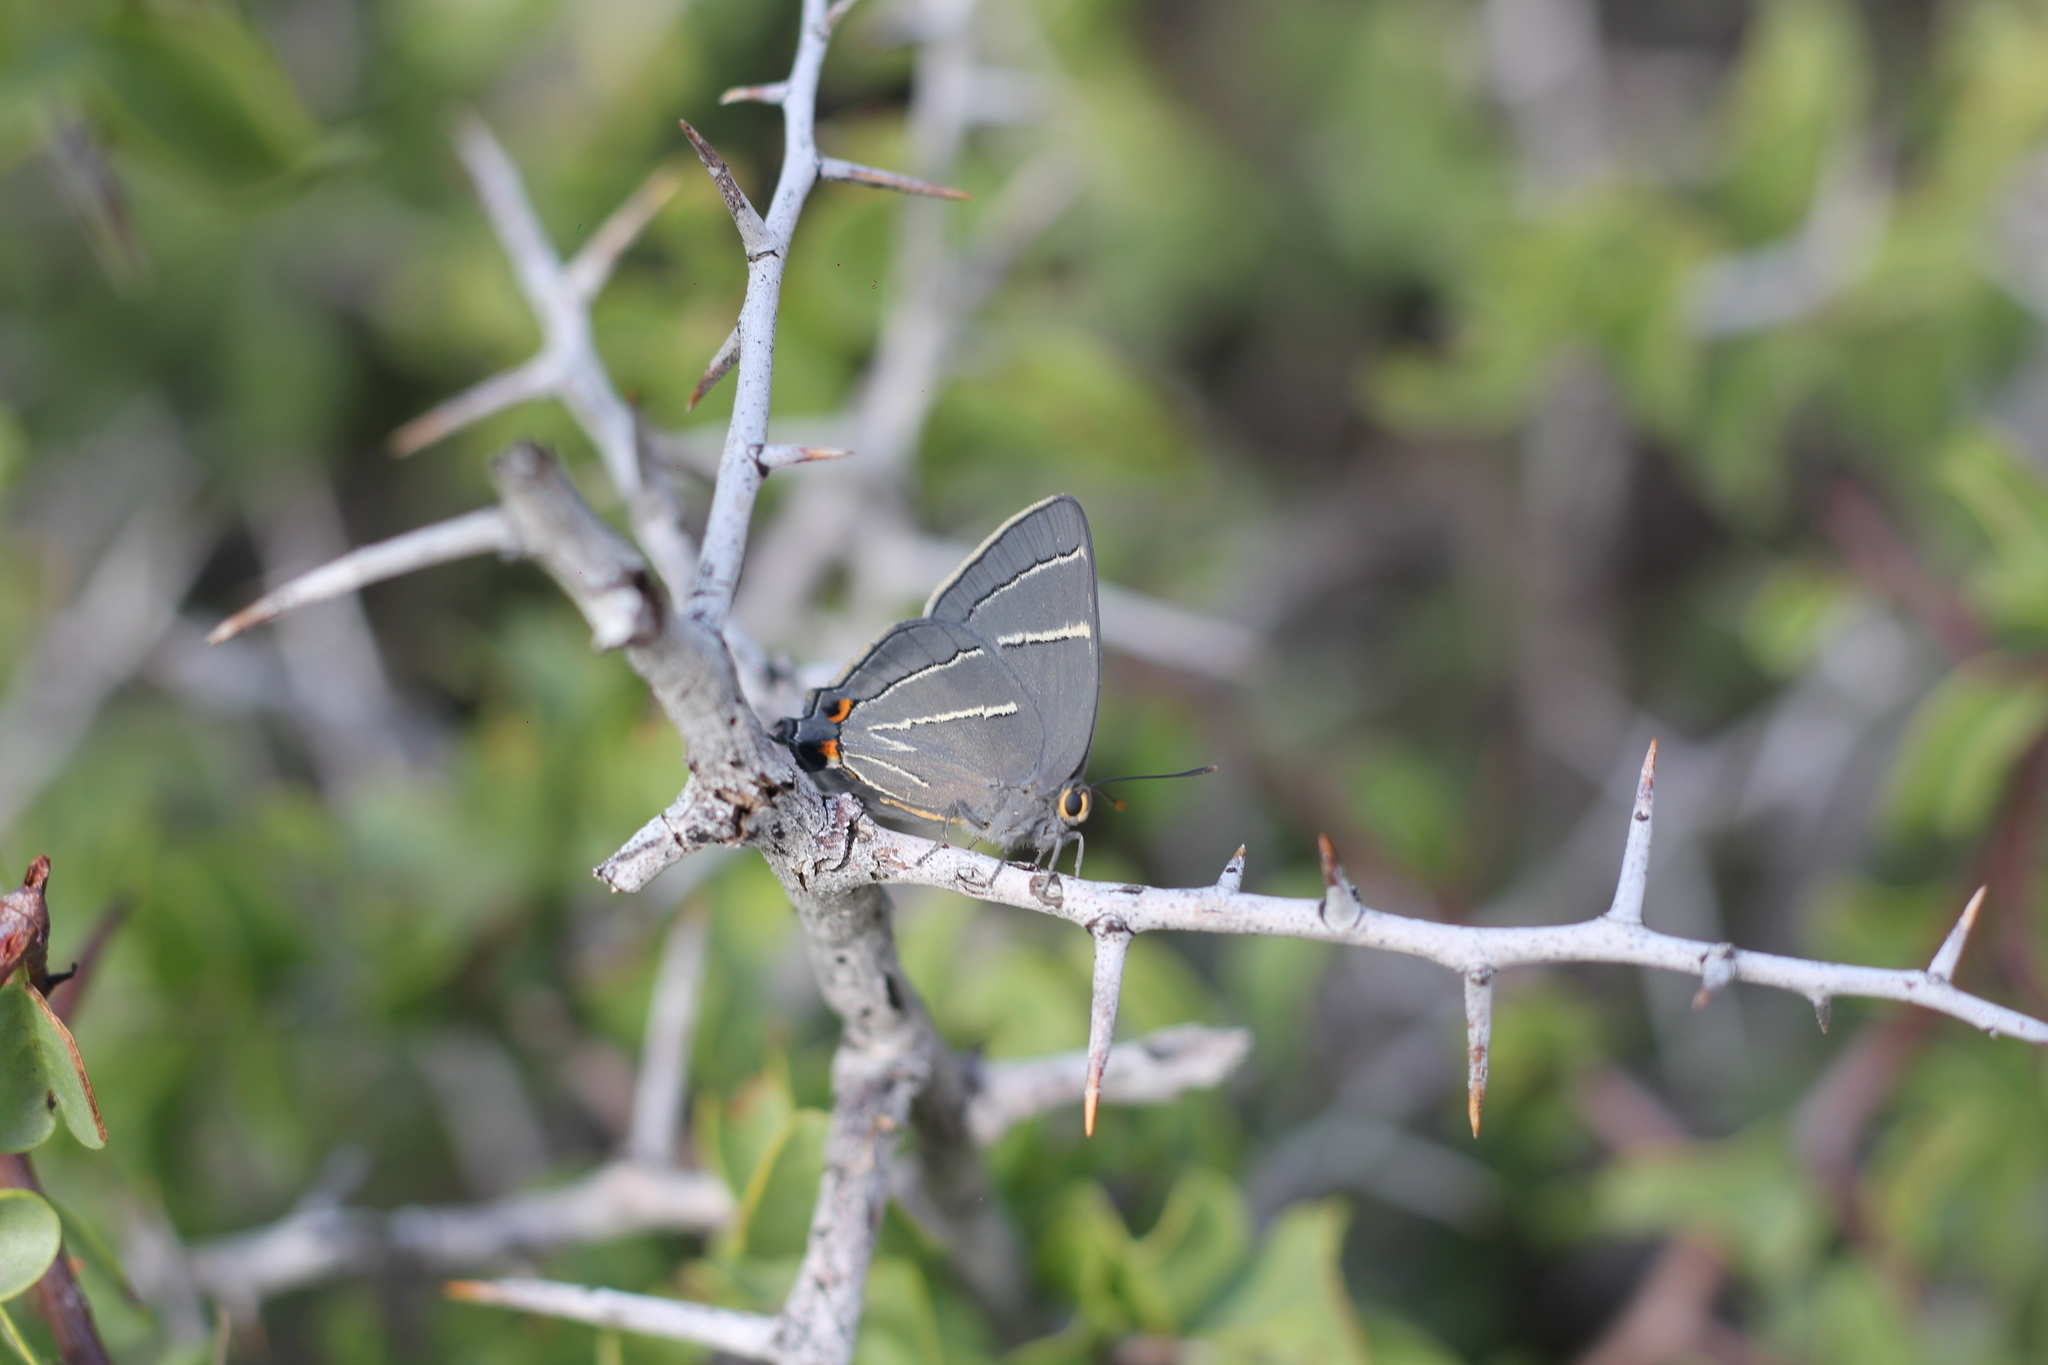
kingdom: Animalia
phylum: Arthropoda
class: Insecta
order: Lepidoptera
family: Lycaenidae
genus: Atlides
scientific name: Atlides
